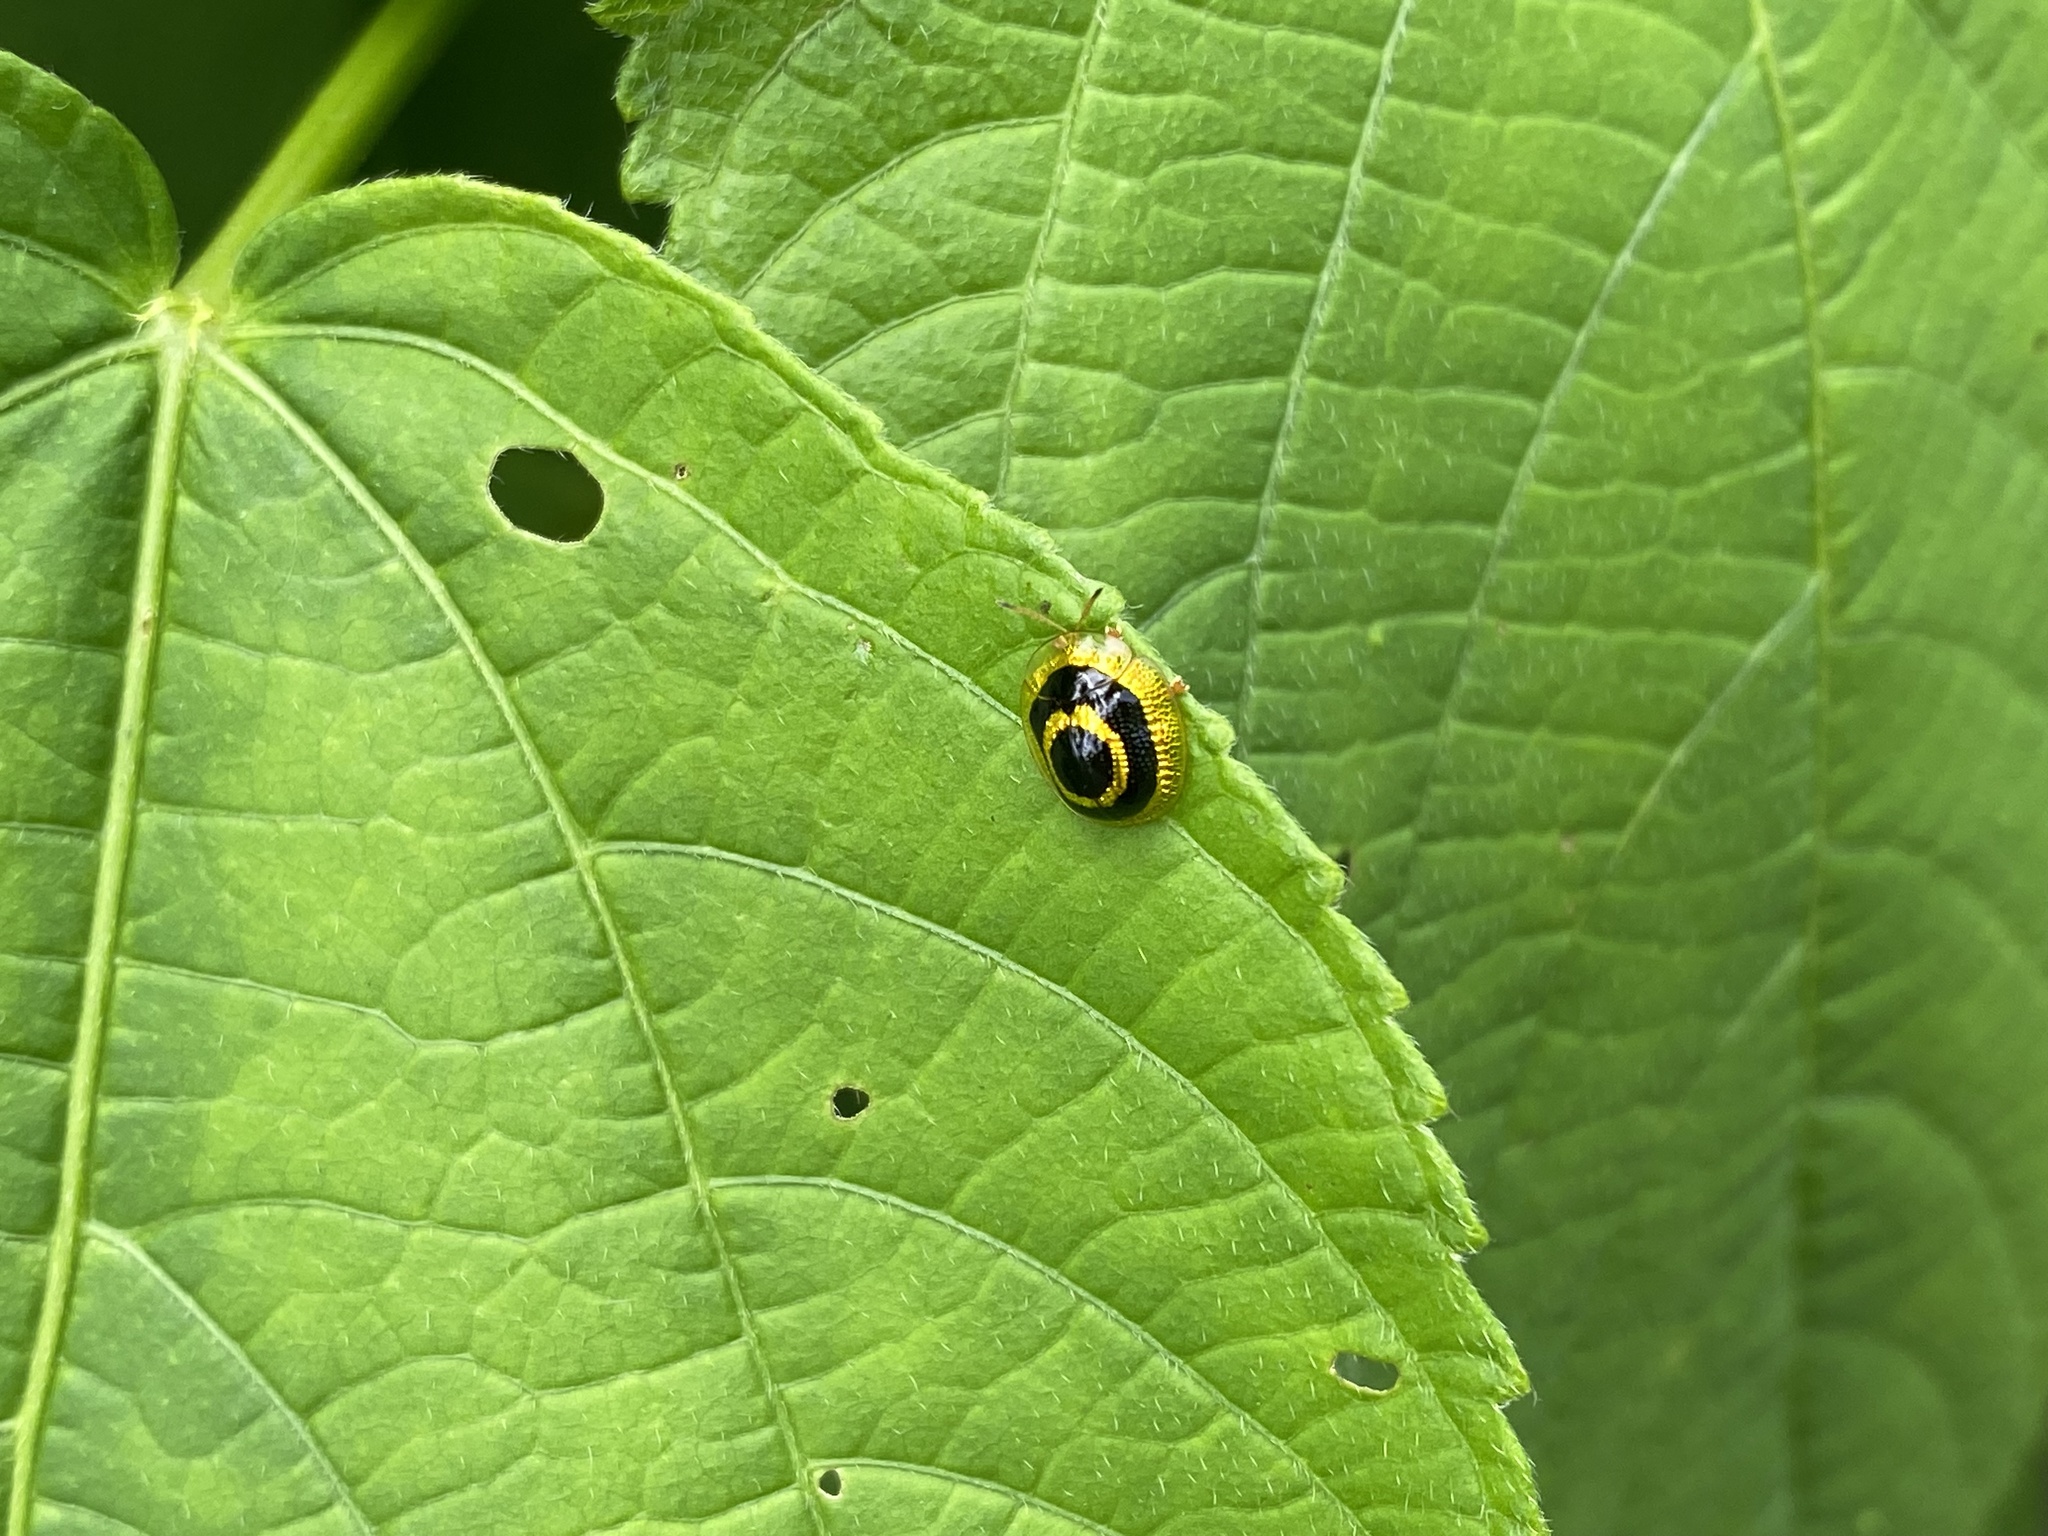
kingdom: Animalia
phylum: Arthropoda
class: Insecta
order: Coleoptera
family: Chrysomelidae
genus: Charidotis
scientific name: Charidotis venusta
